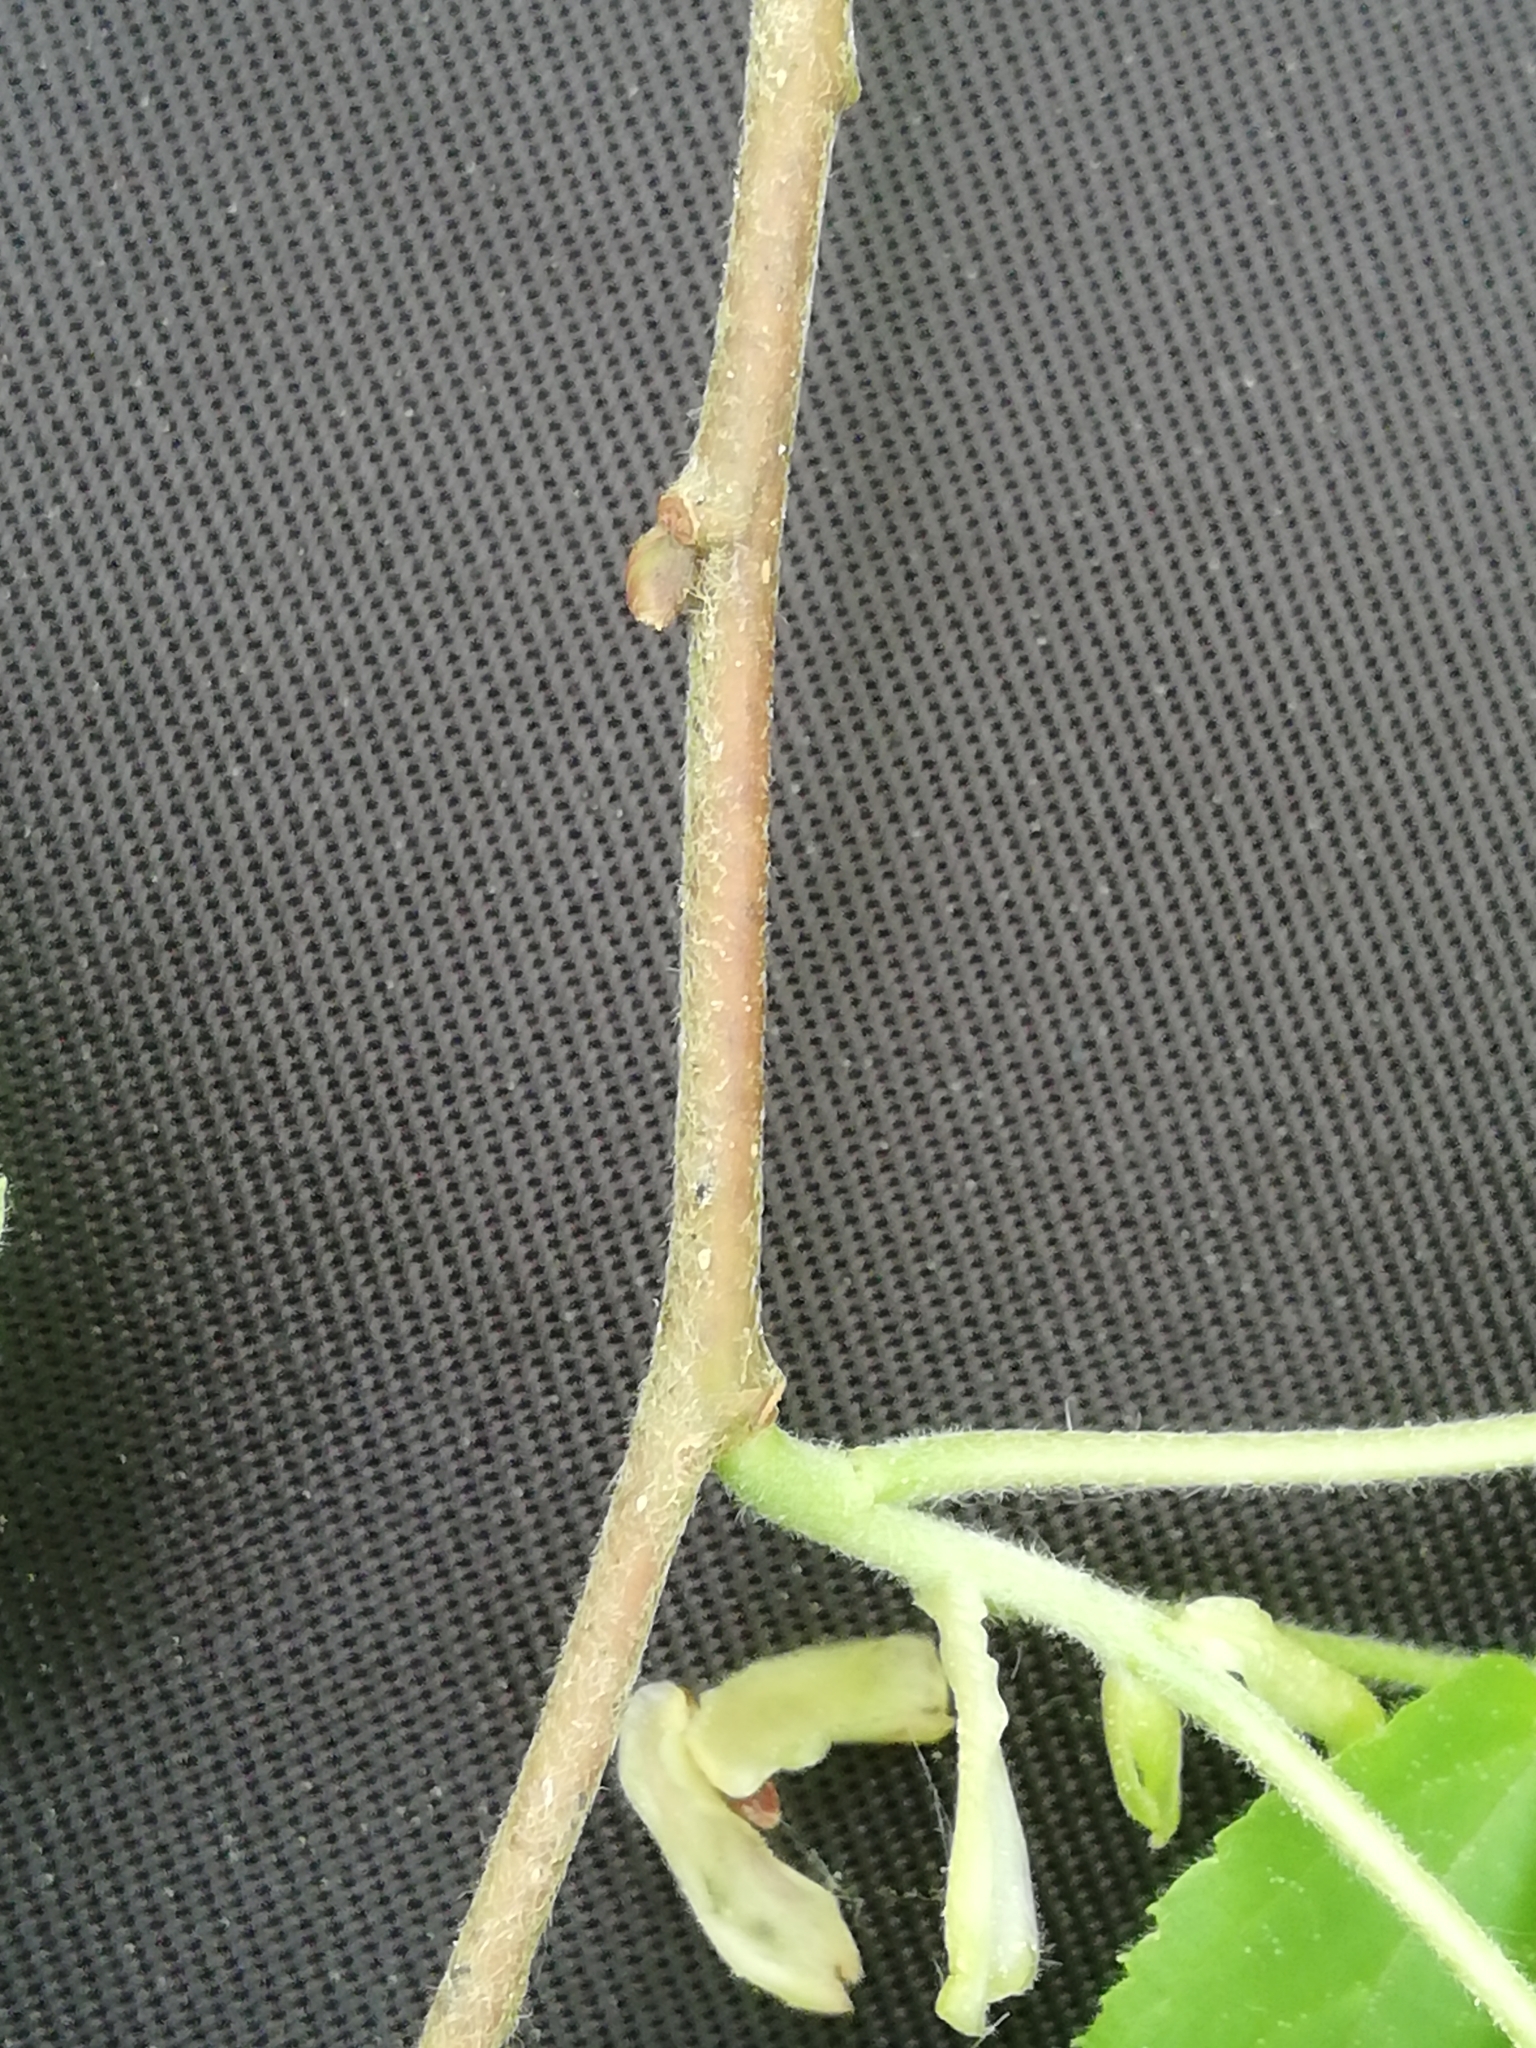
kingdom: Plantae
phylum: Tracheophyta
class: Magnoliopsida
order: Malvales
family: Malvaceae
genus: Tilia
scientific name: Tilia platyphyllos
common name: Large-leaved lime
